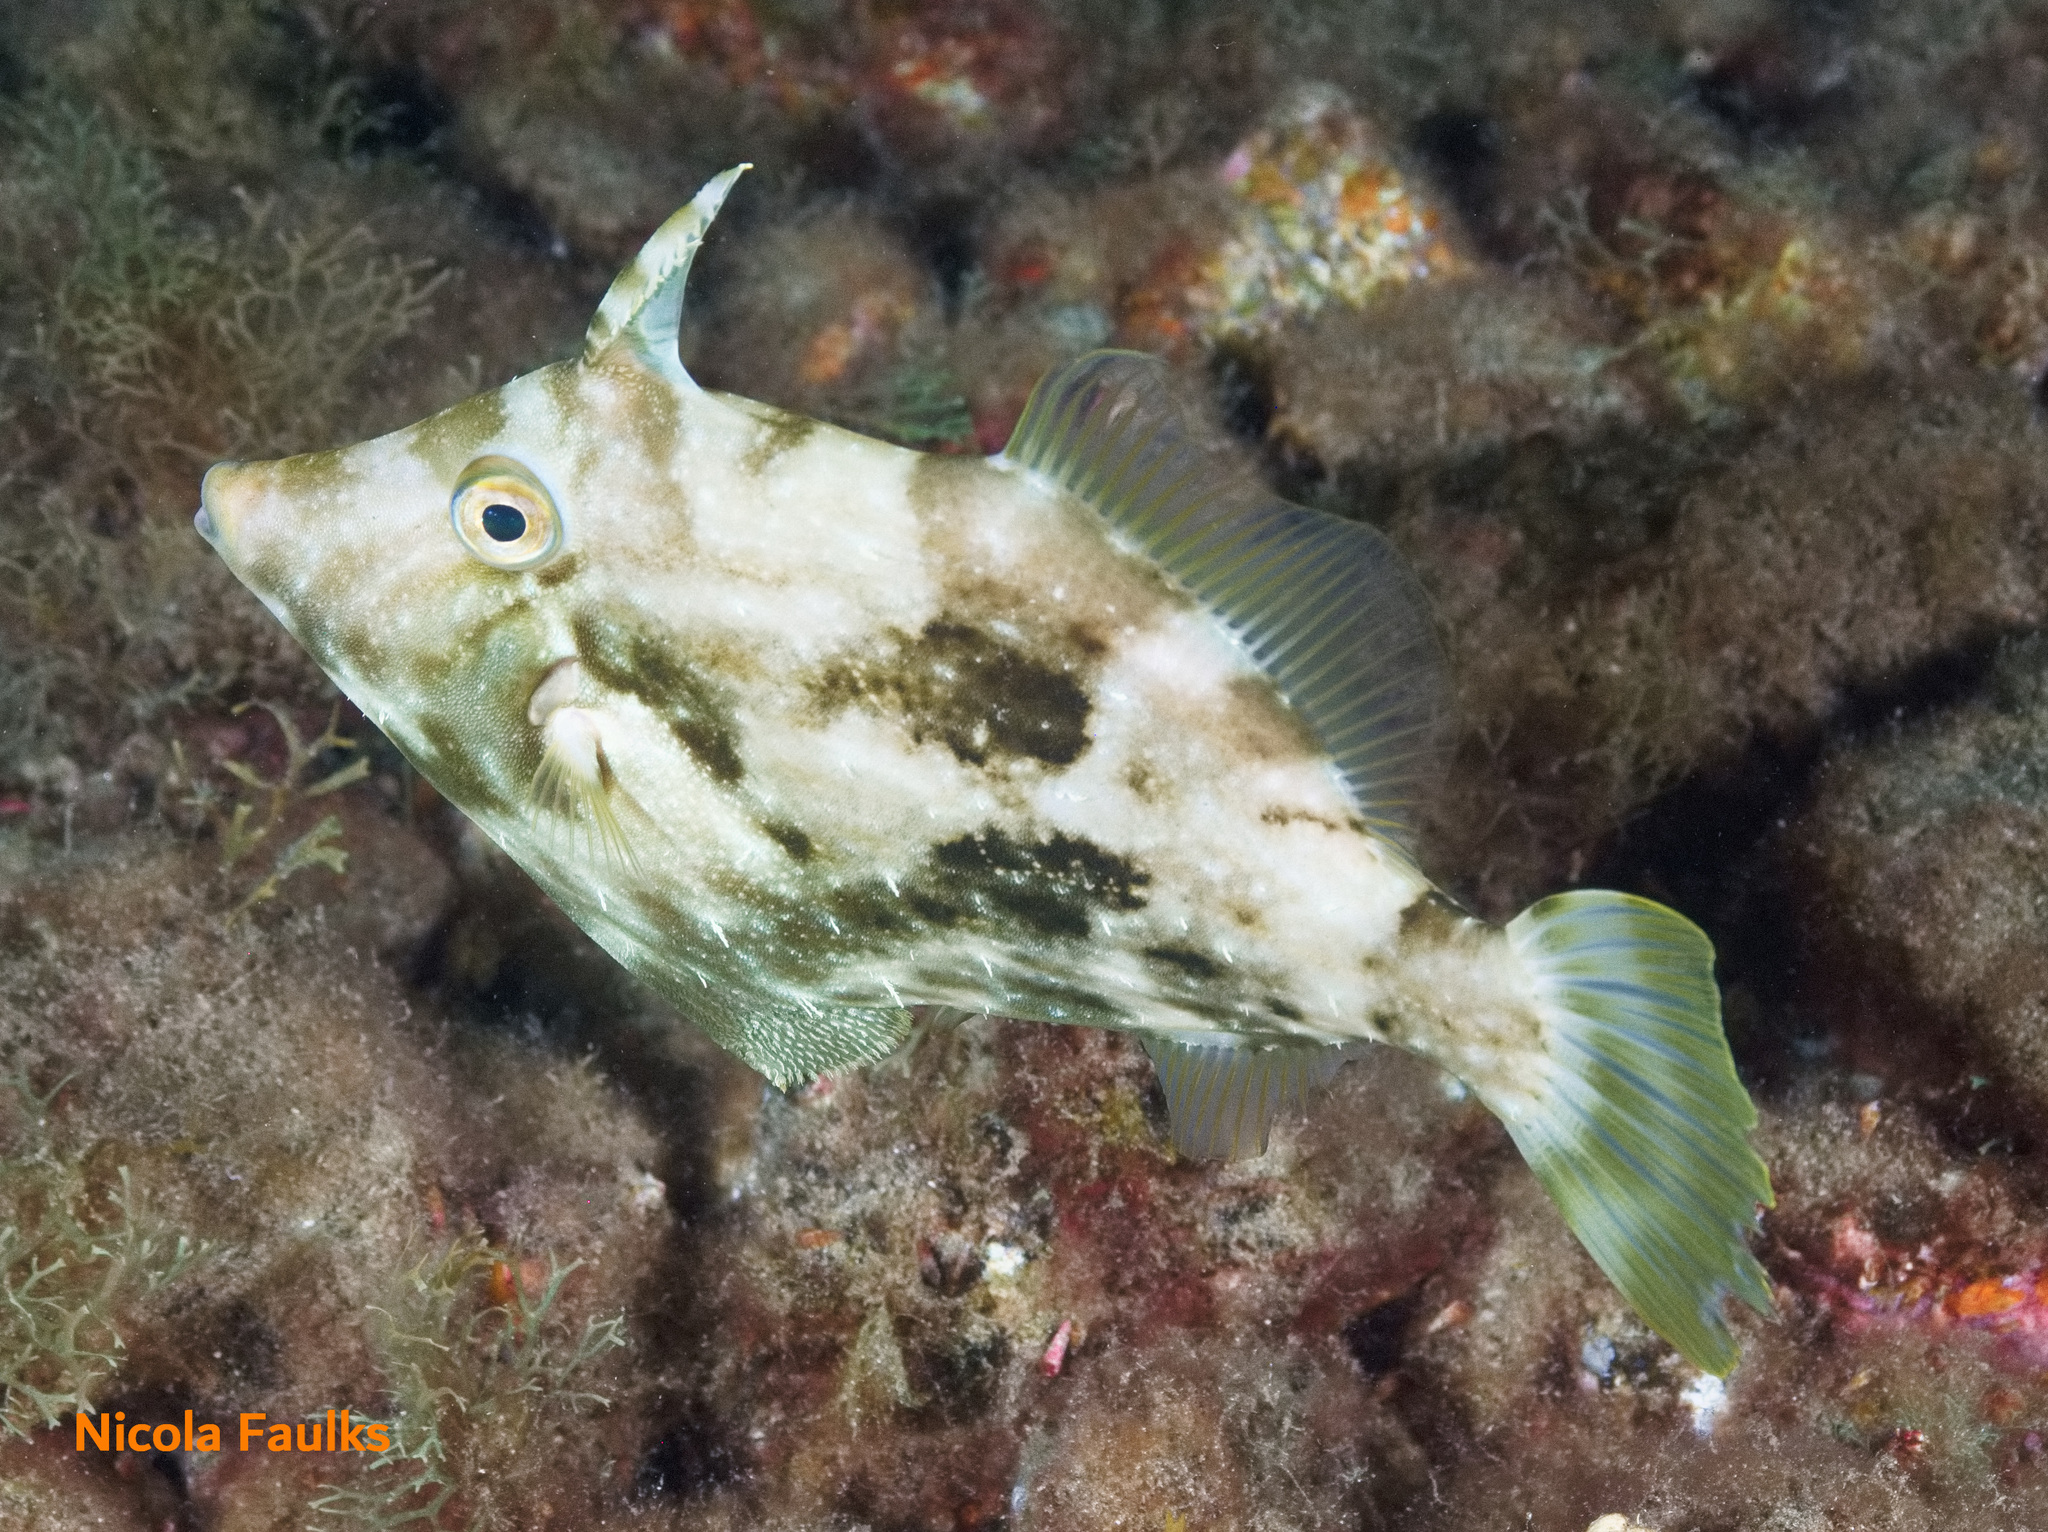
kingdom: Animalia
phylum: Chordata
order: Tetraodontiformes
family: Monacanthidae
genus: Stephanolepis
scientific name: Stephanolepis hispidus
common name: Planehead filefish
